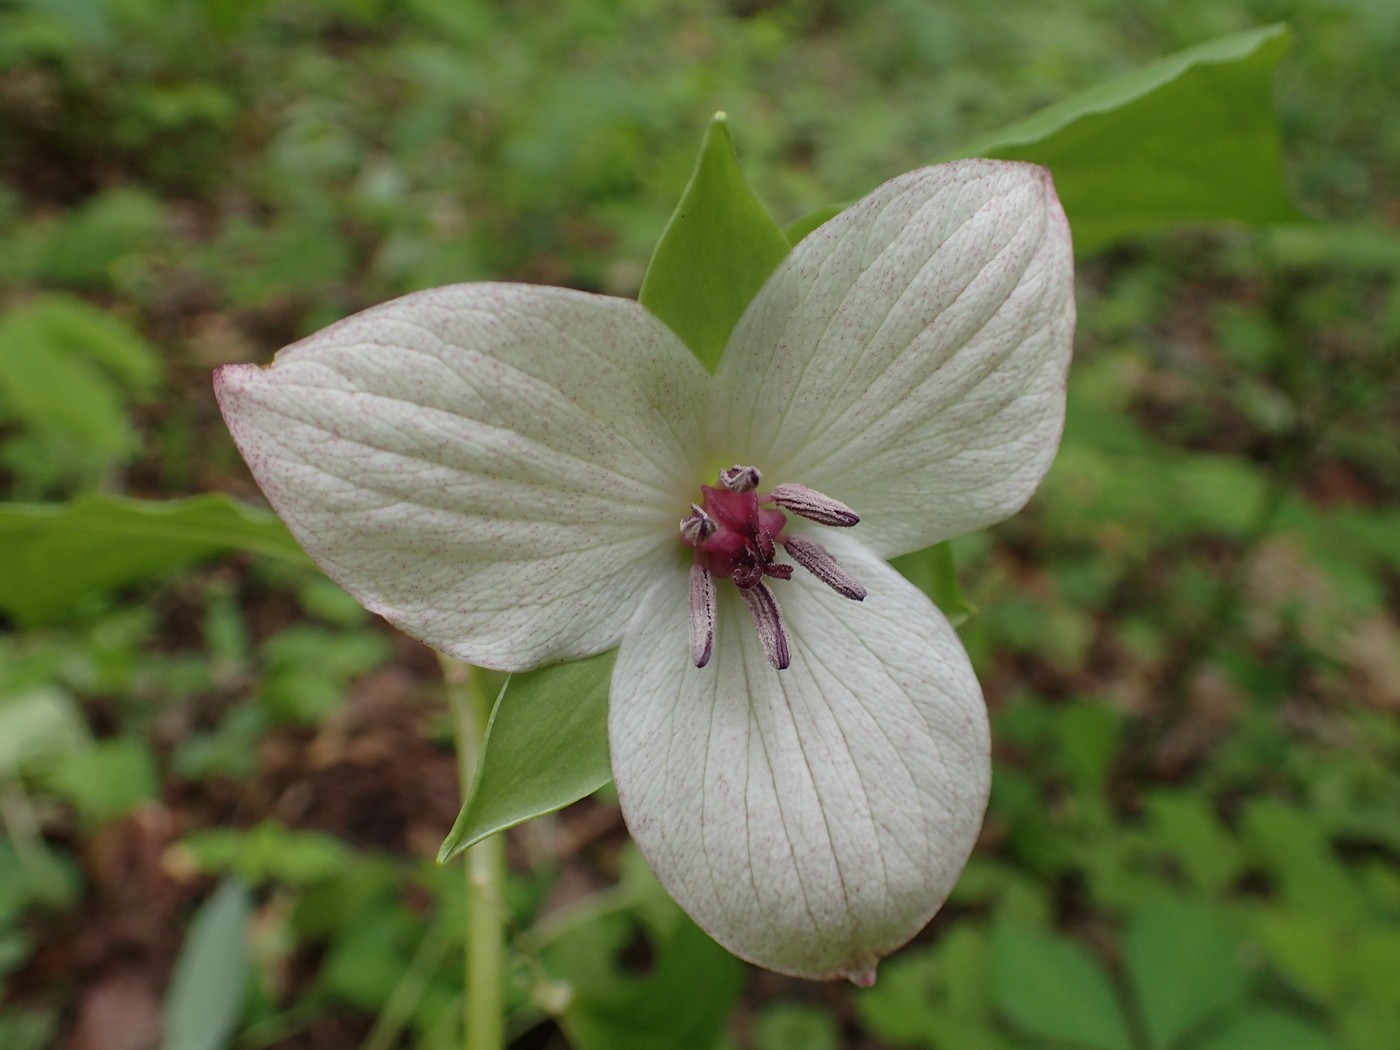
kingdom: Plantae
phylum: Tracheophyta
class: Liliopsida
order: Liliales
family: Melanthiaceae
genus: Trillium
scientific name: Trillium rugelii
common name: Ill-scented trillium
